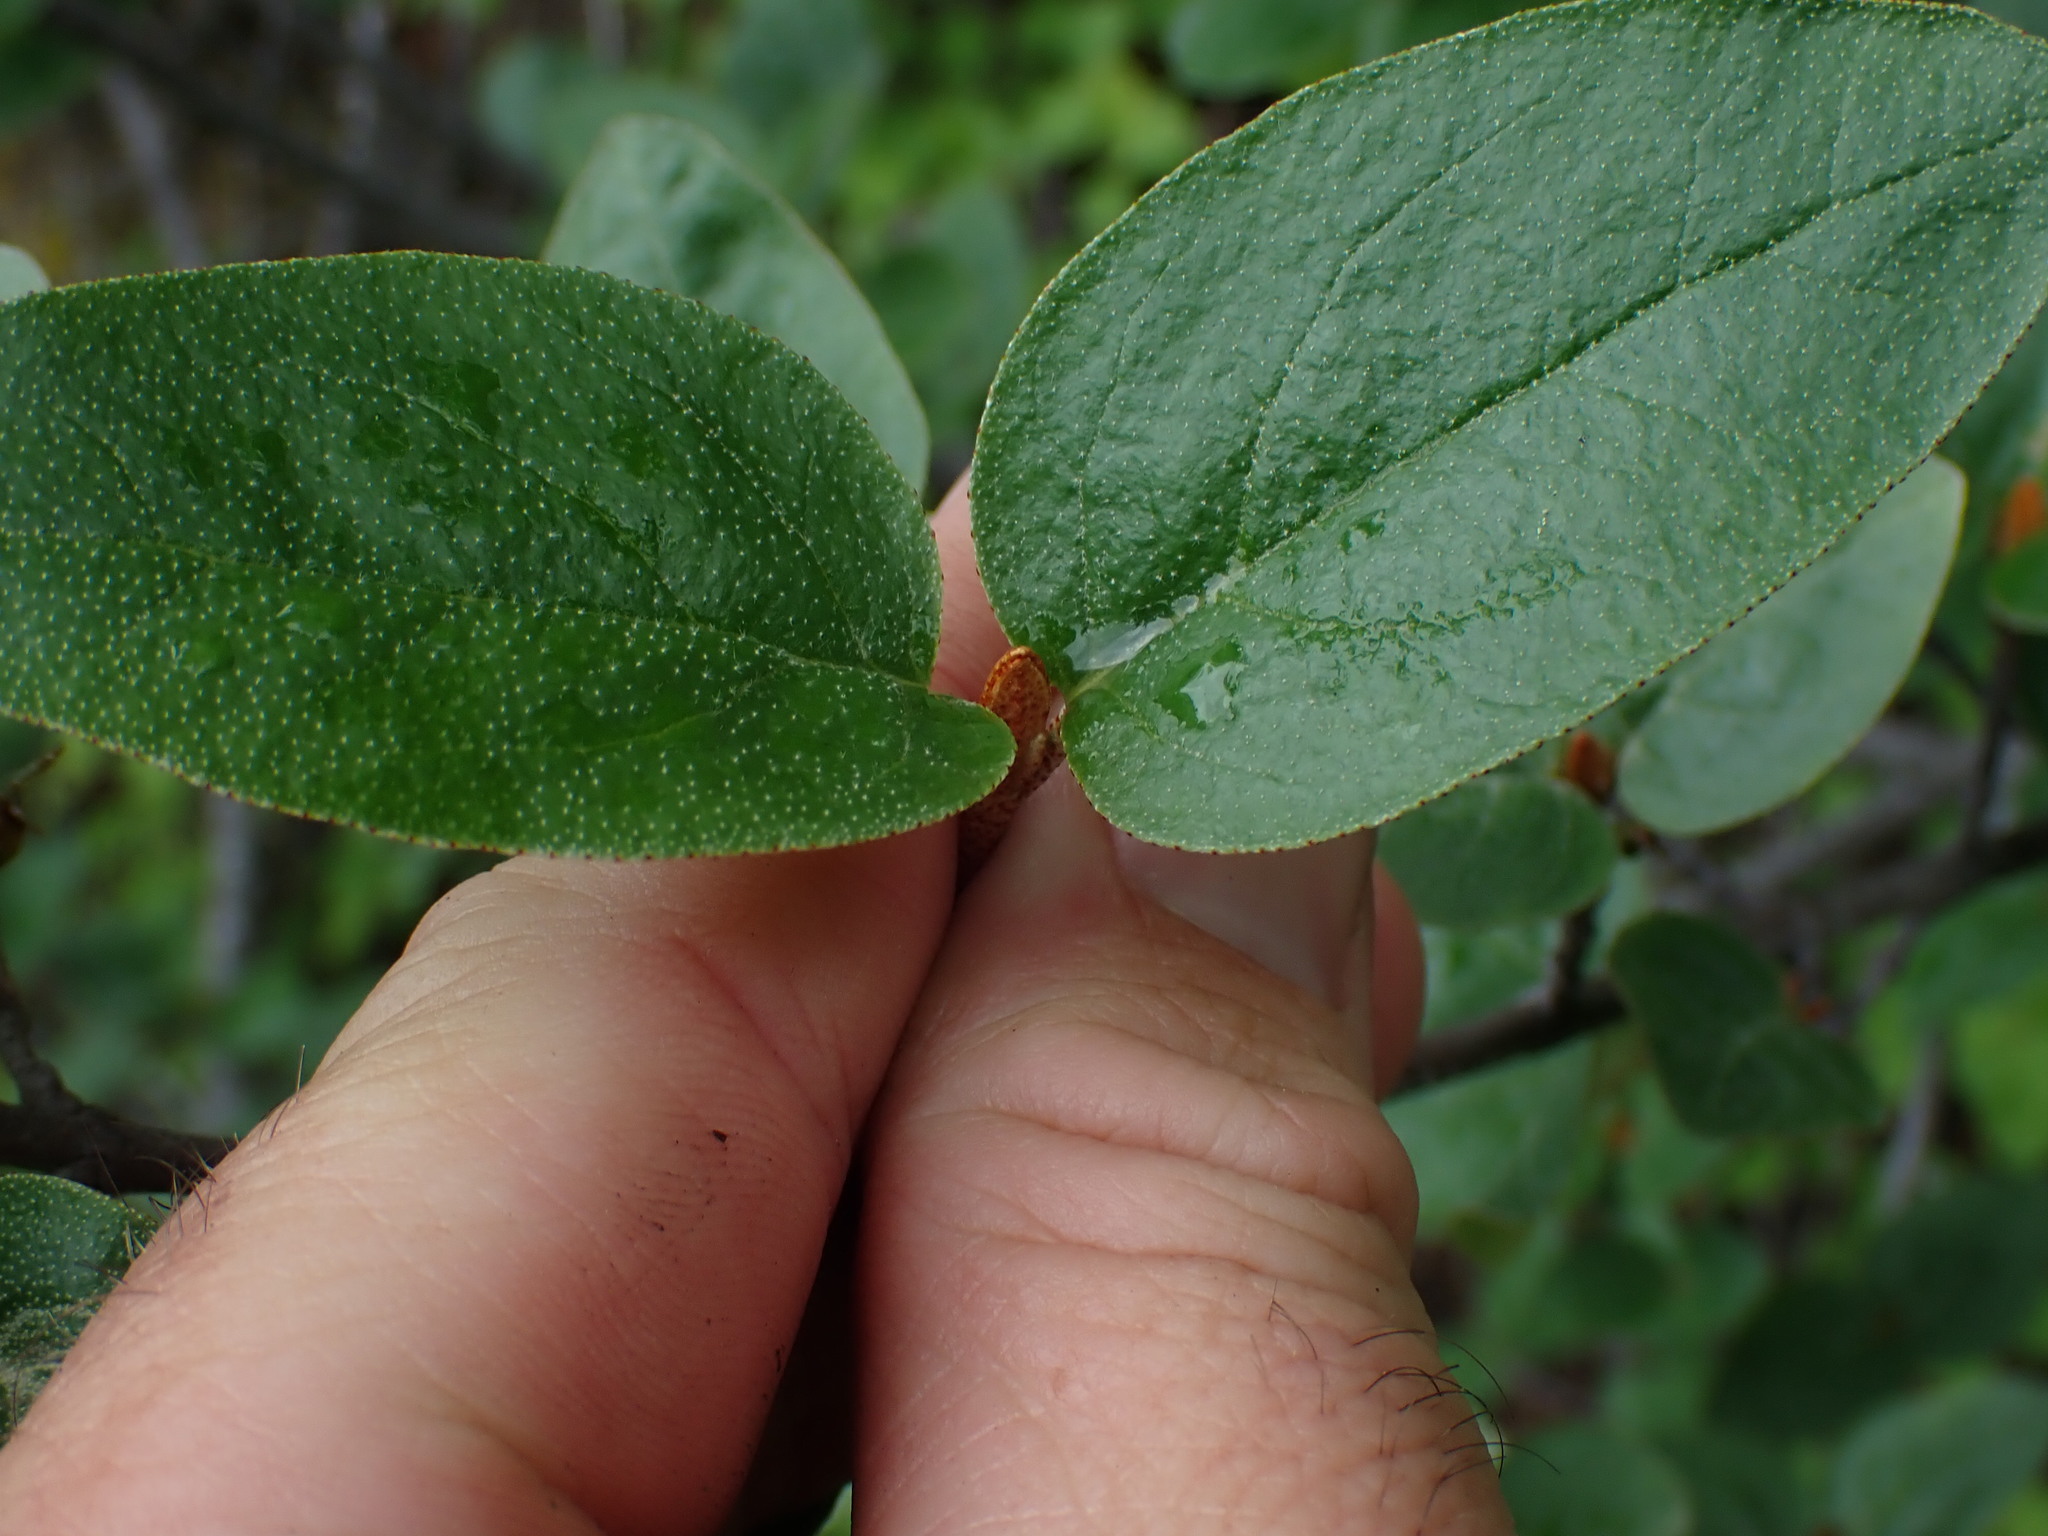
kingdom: Plantae
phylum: Tracheophyta
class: Magnoliopsida
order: Rosales
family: Elaeagnaceae
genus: Shepherdia
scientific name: Shepherdia canadensis
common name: Soapberry
